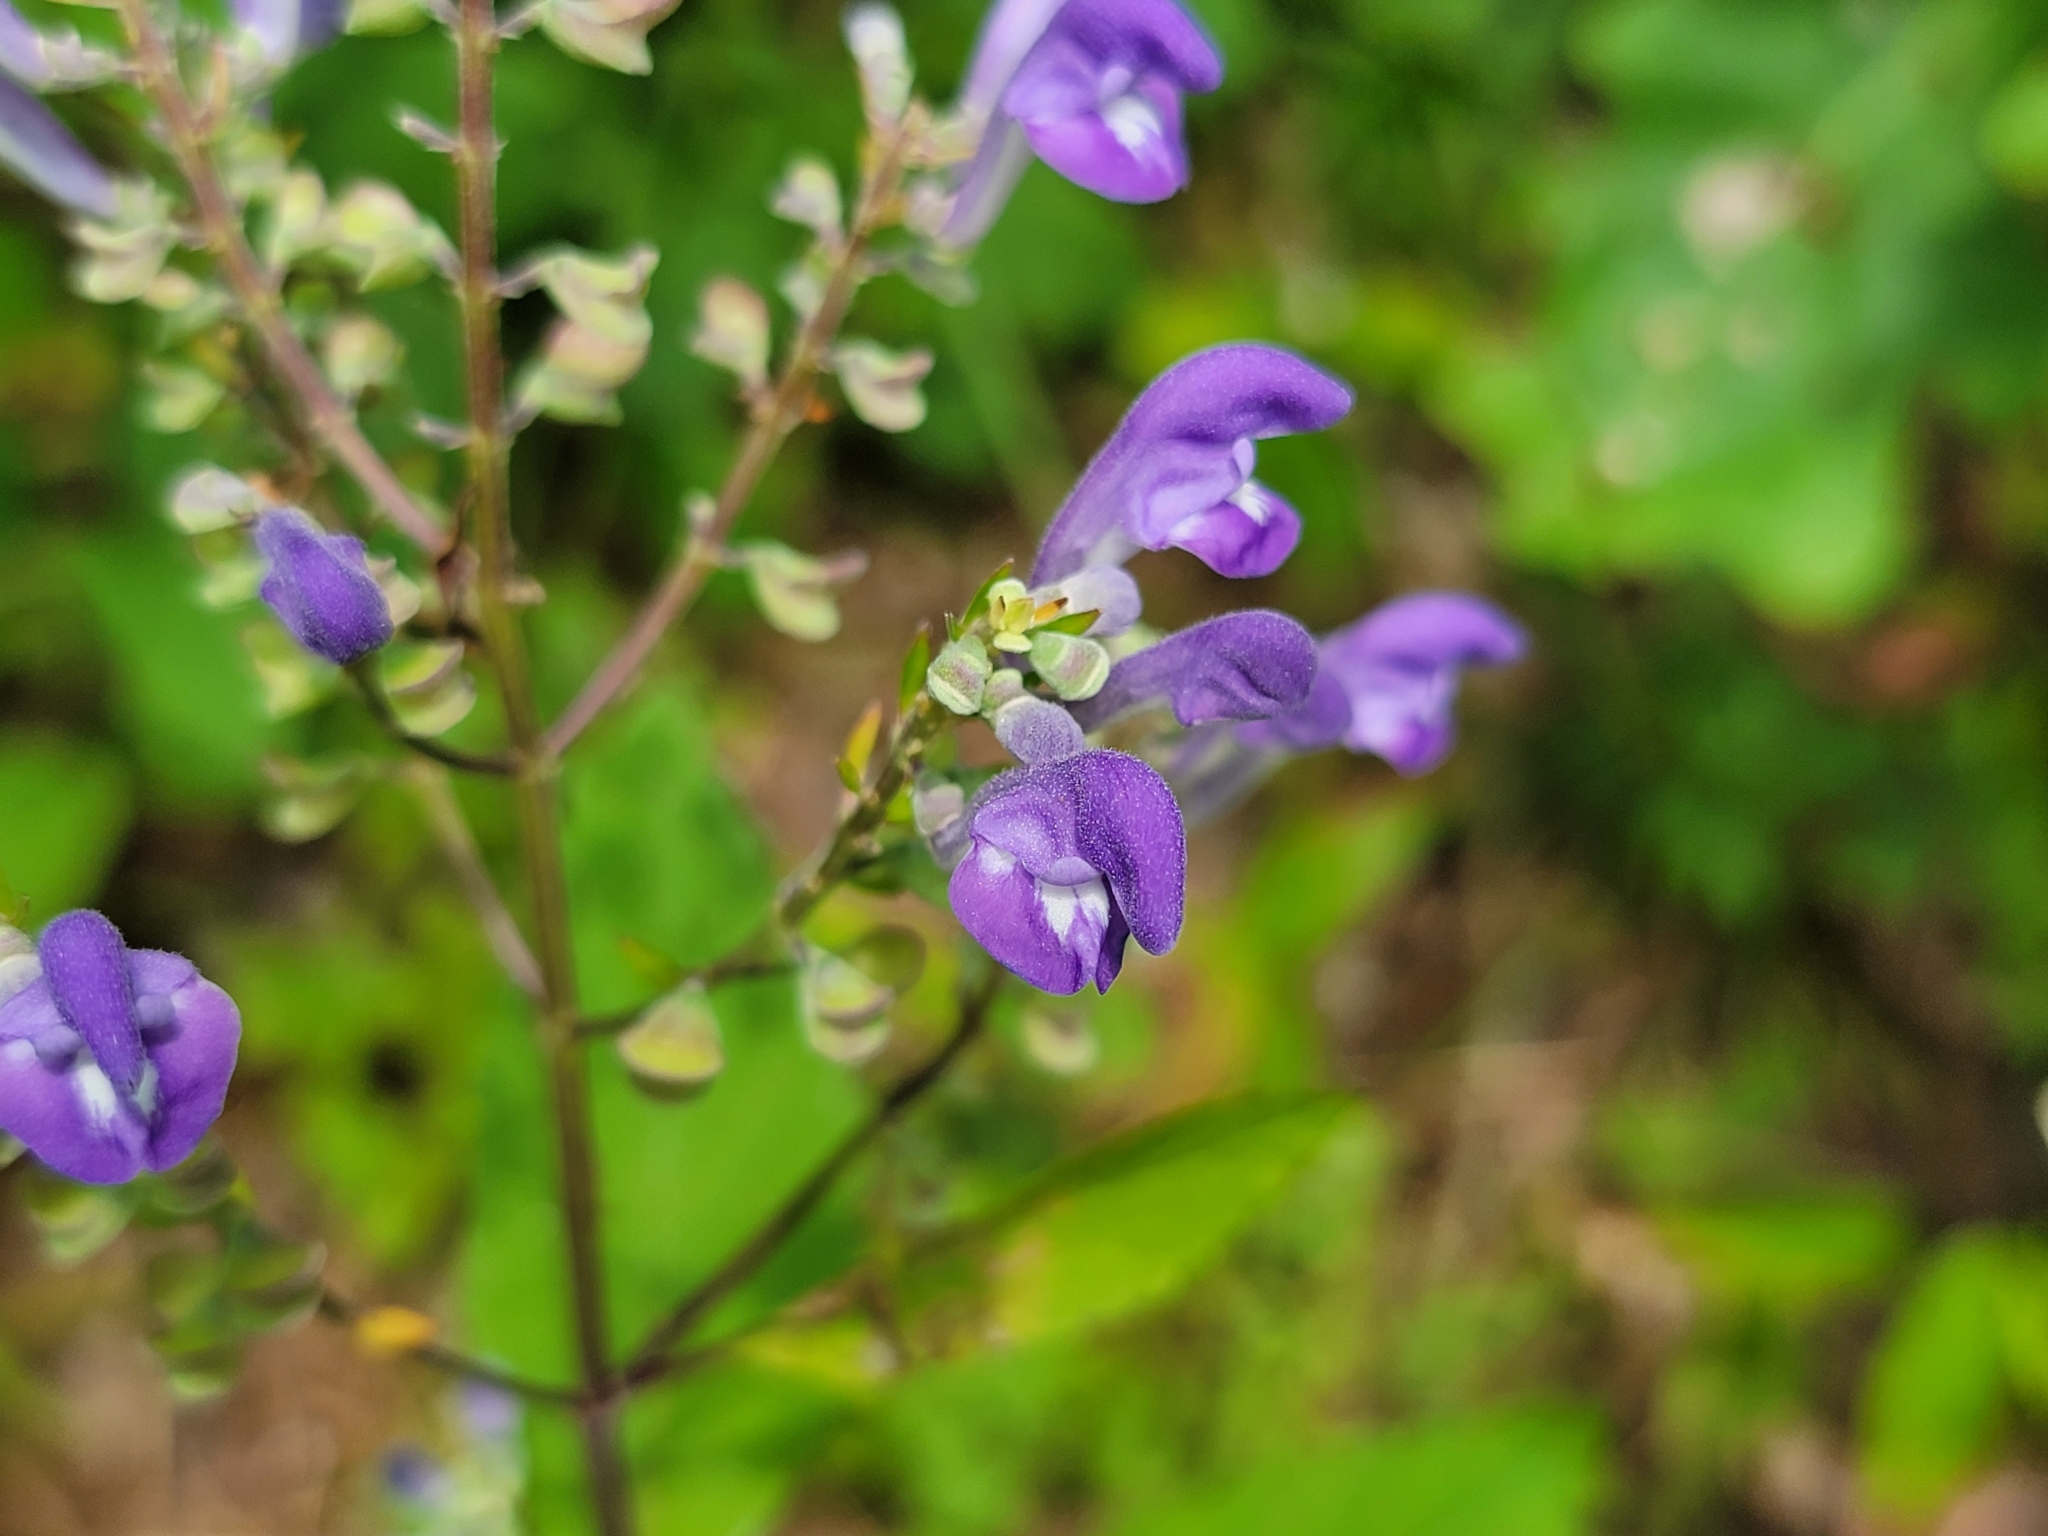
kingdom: Plantae
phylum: Tracheophyta
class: Magnoliopsida
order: Lamiales
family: Lamiaceae
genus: Scutellaria
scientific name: Scutellaria incana
